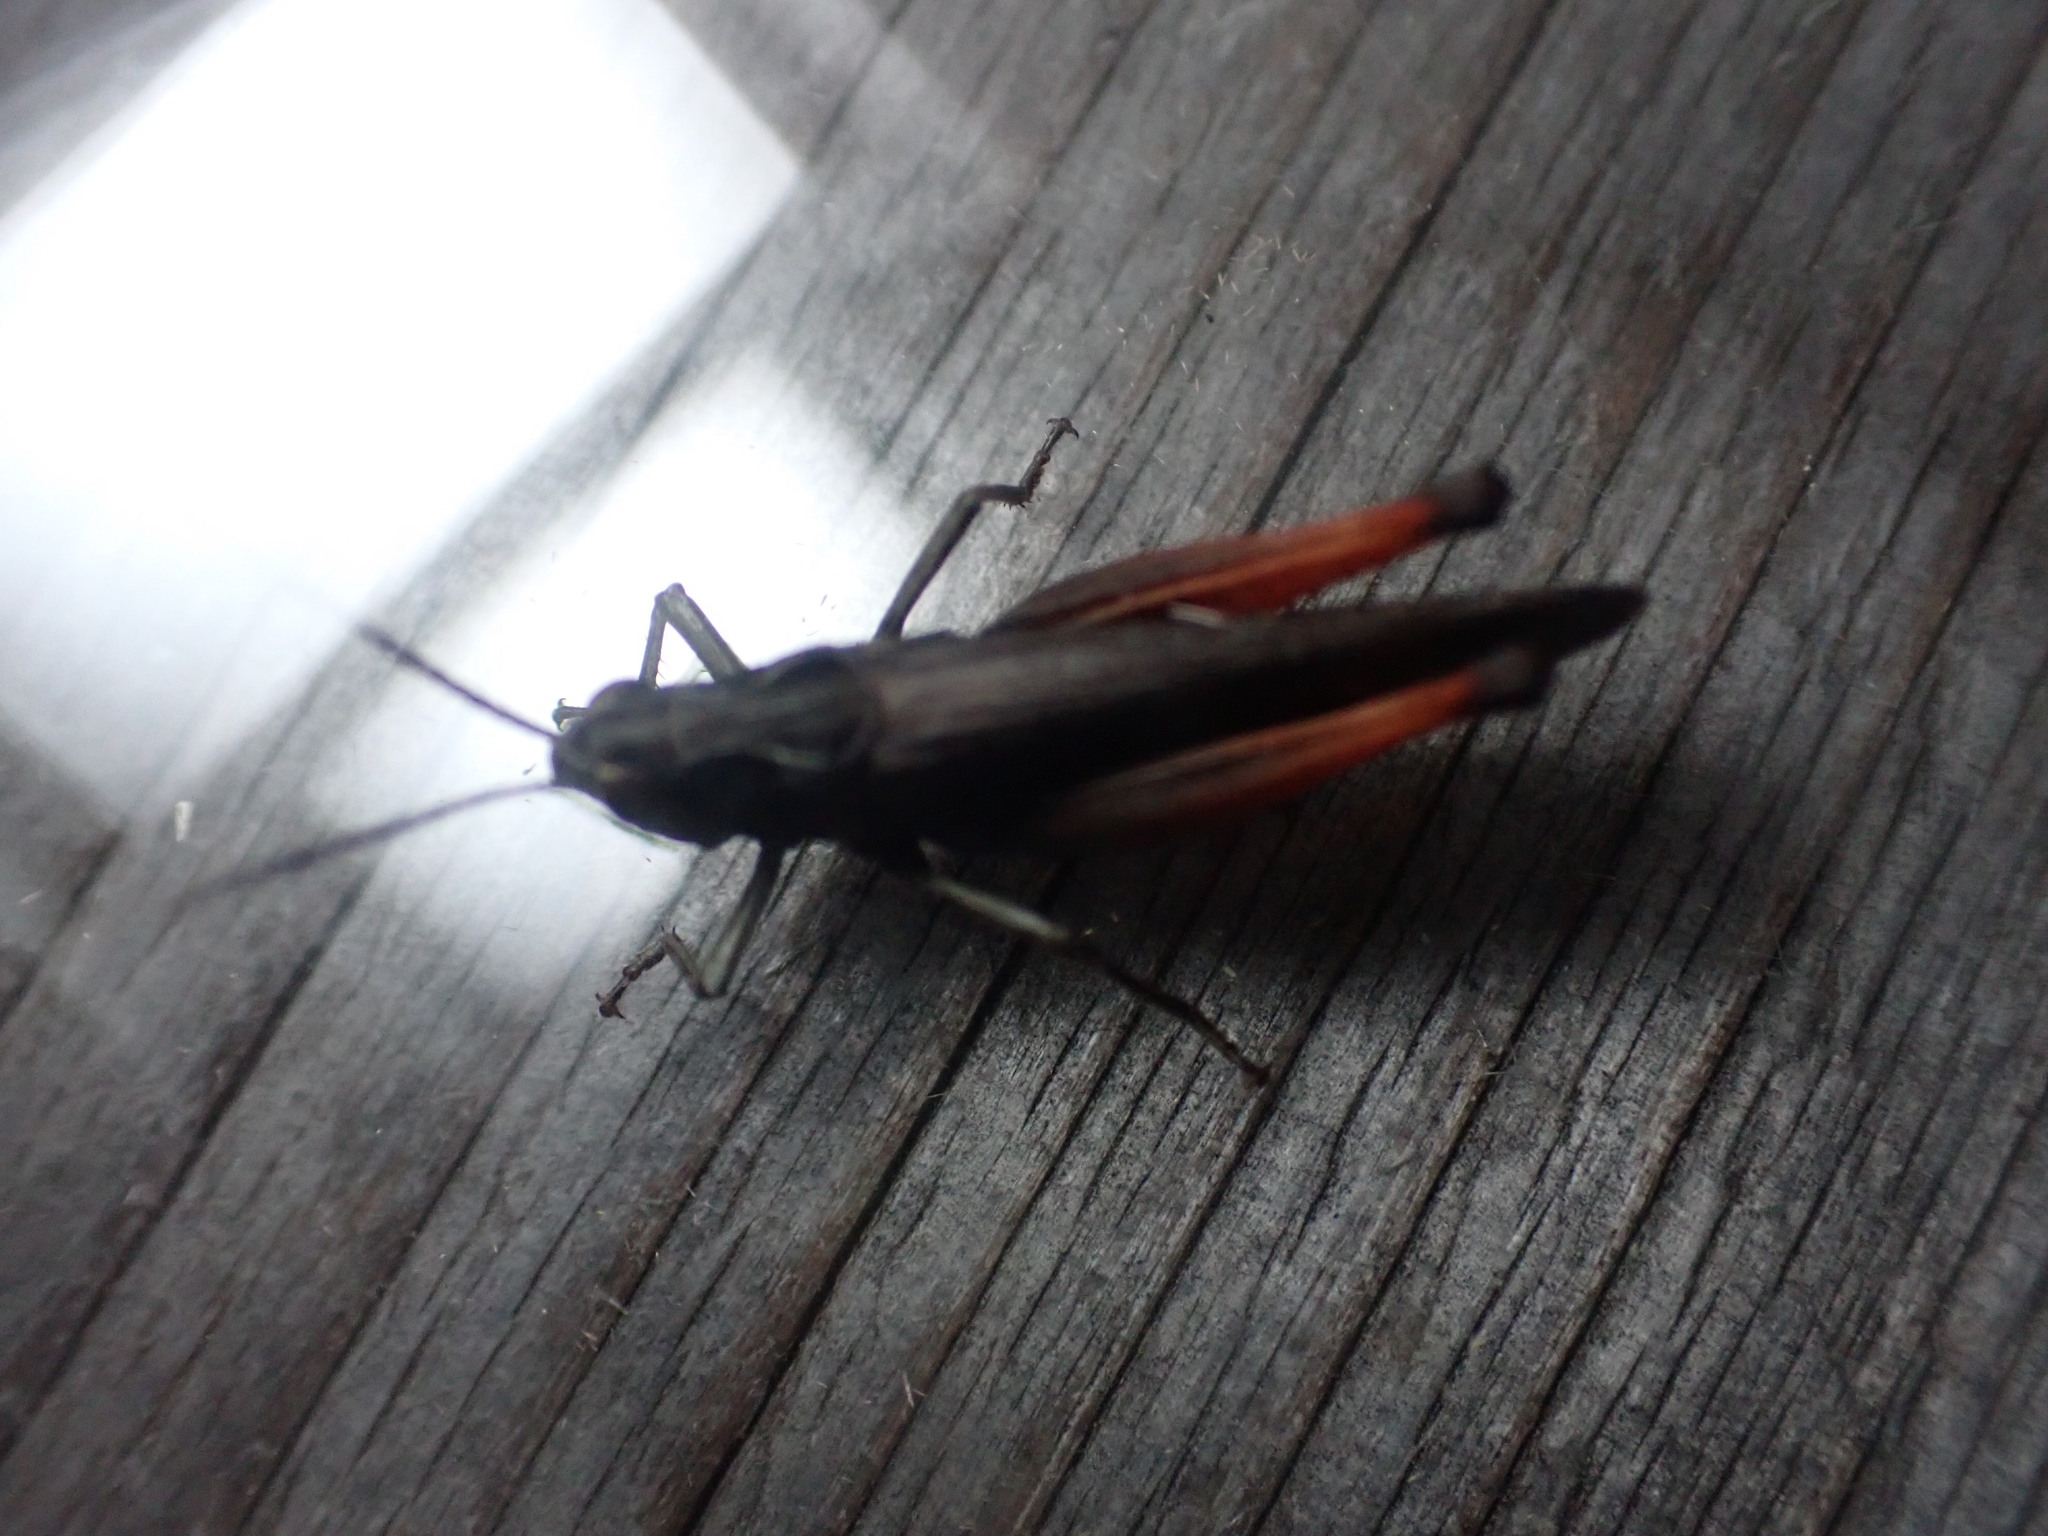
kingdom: Animalia
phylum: Arthropoda
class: Insecta
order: Orthoptera
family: Acrididae
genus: Omocestus
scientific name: Omocestus rufipes
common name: Woodland grasshopper
